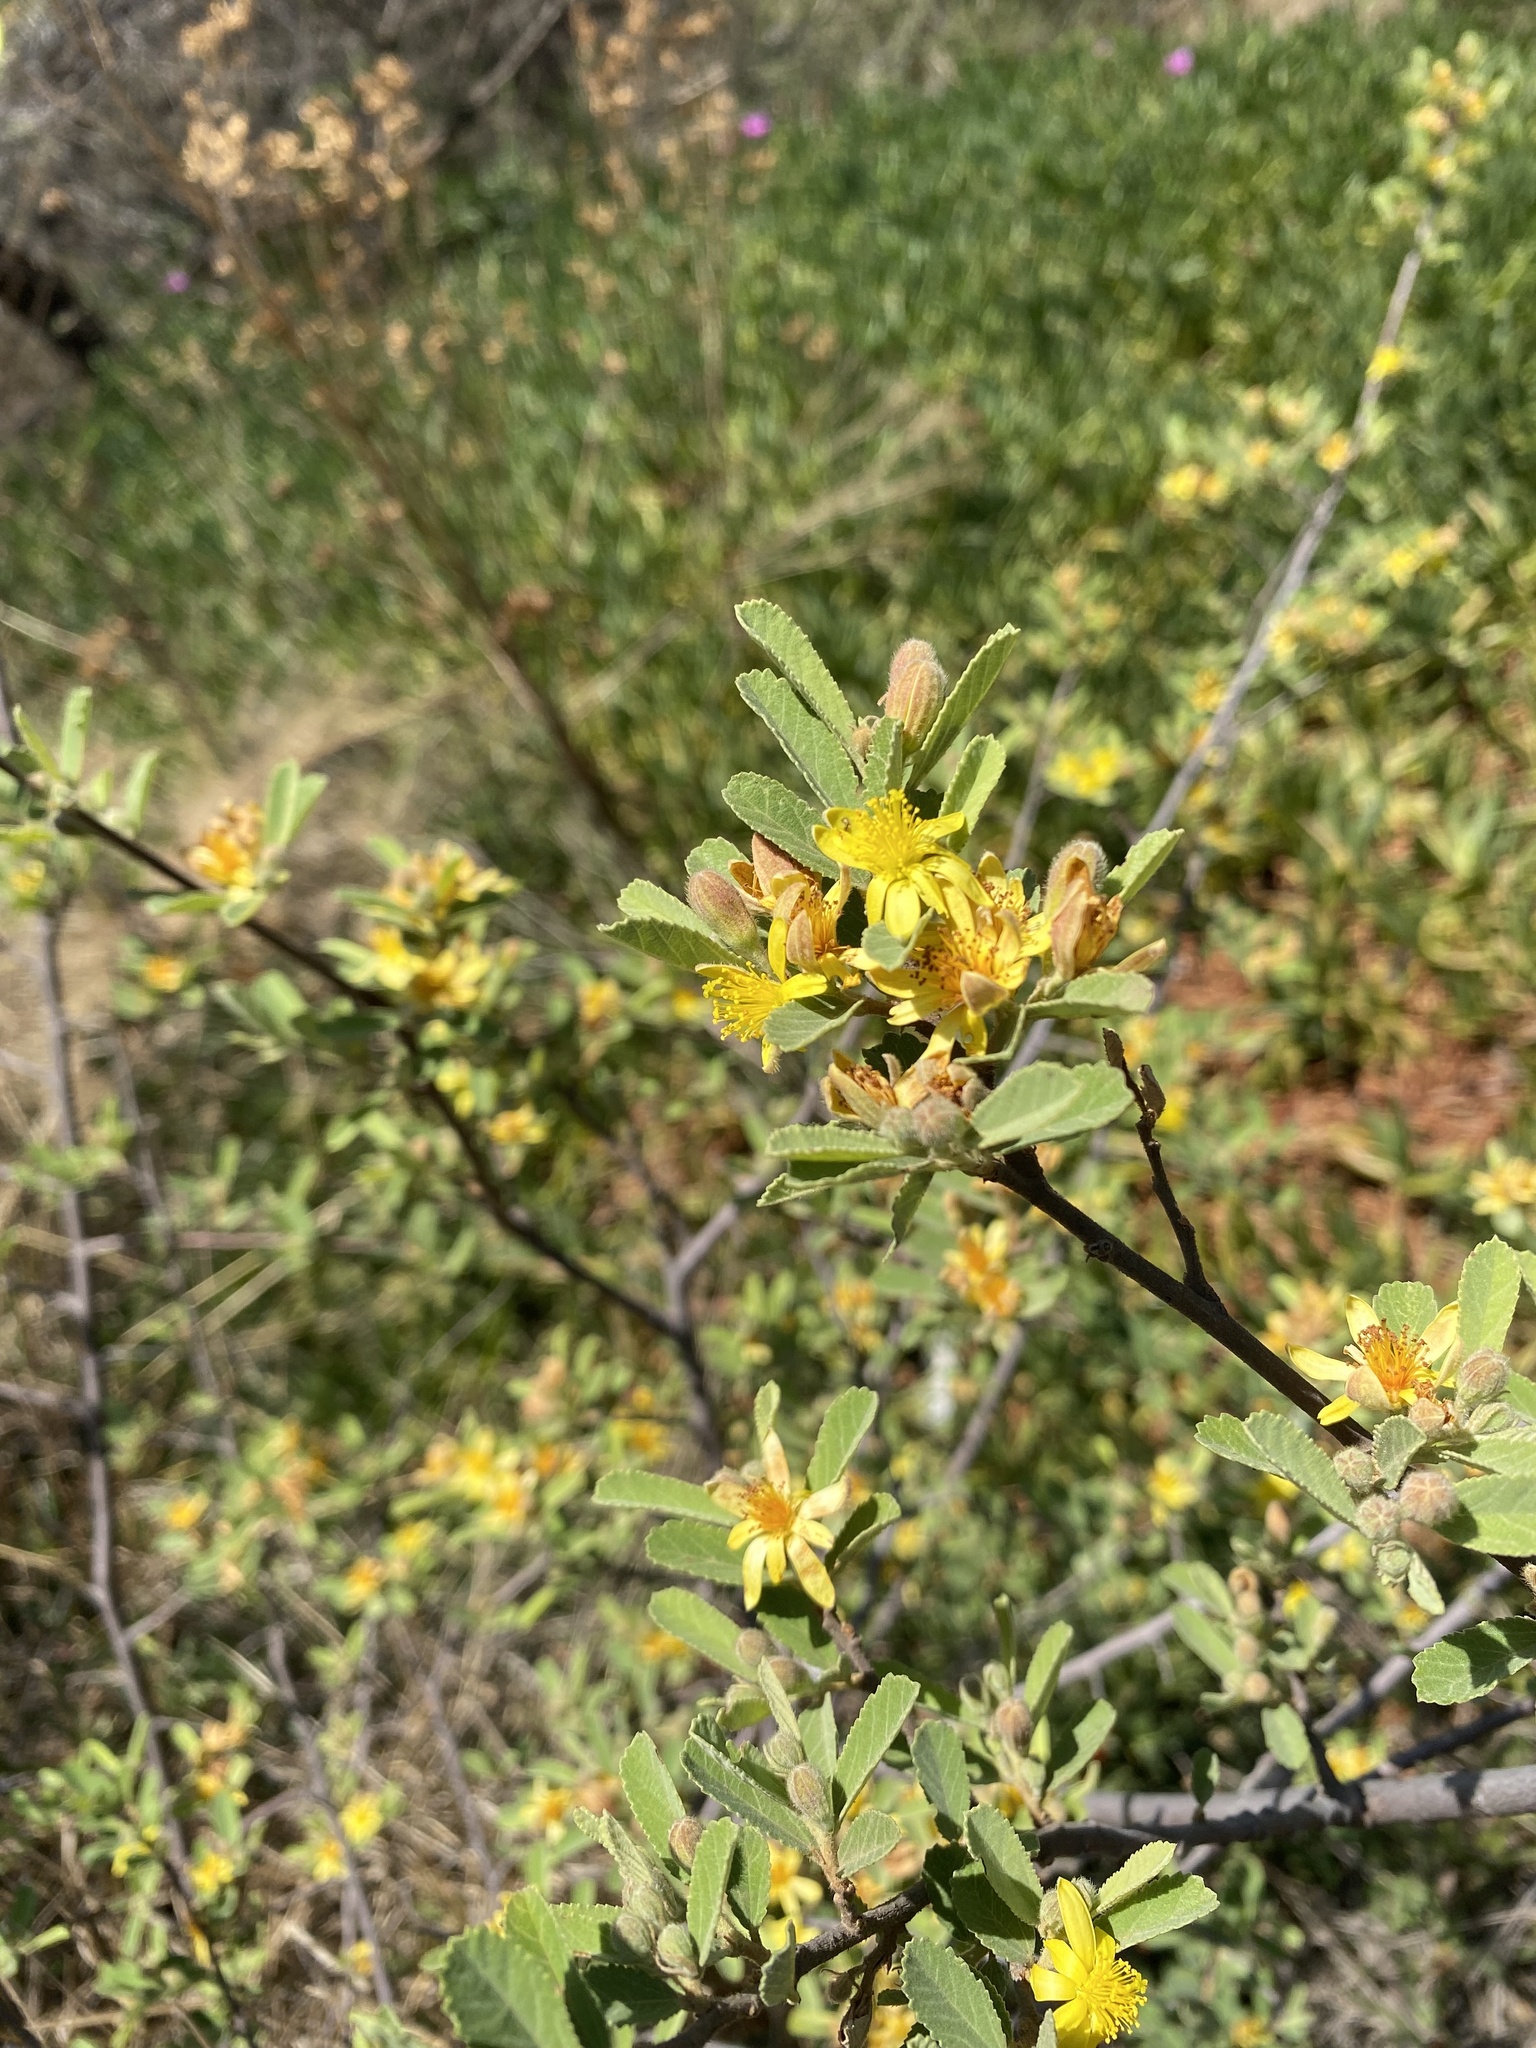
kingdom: Plantae
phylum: Tracheophyta
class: Magnoliopsida
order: Malvales
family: Malvaceae
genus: Grewia
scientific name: Grewia flava
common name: Brandy bush
